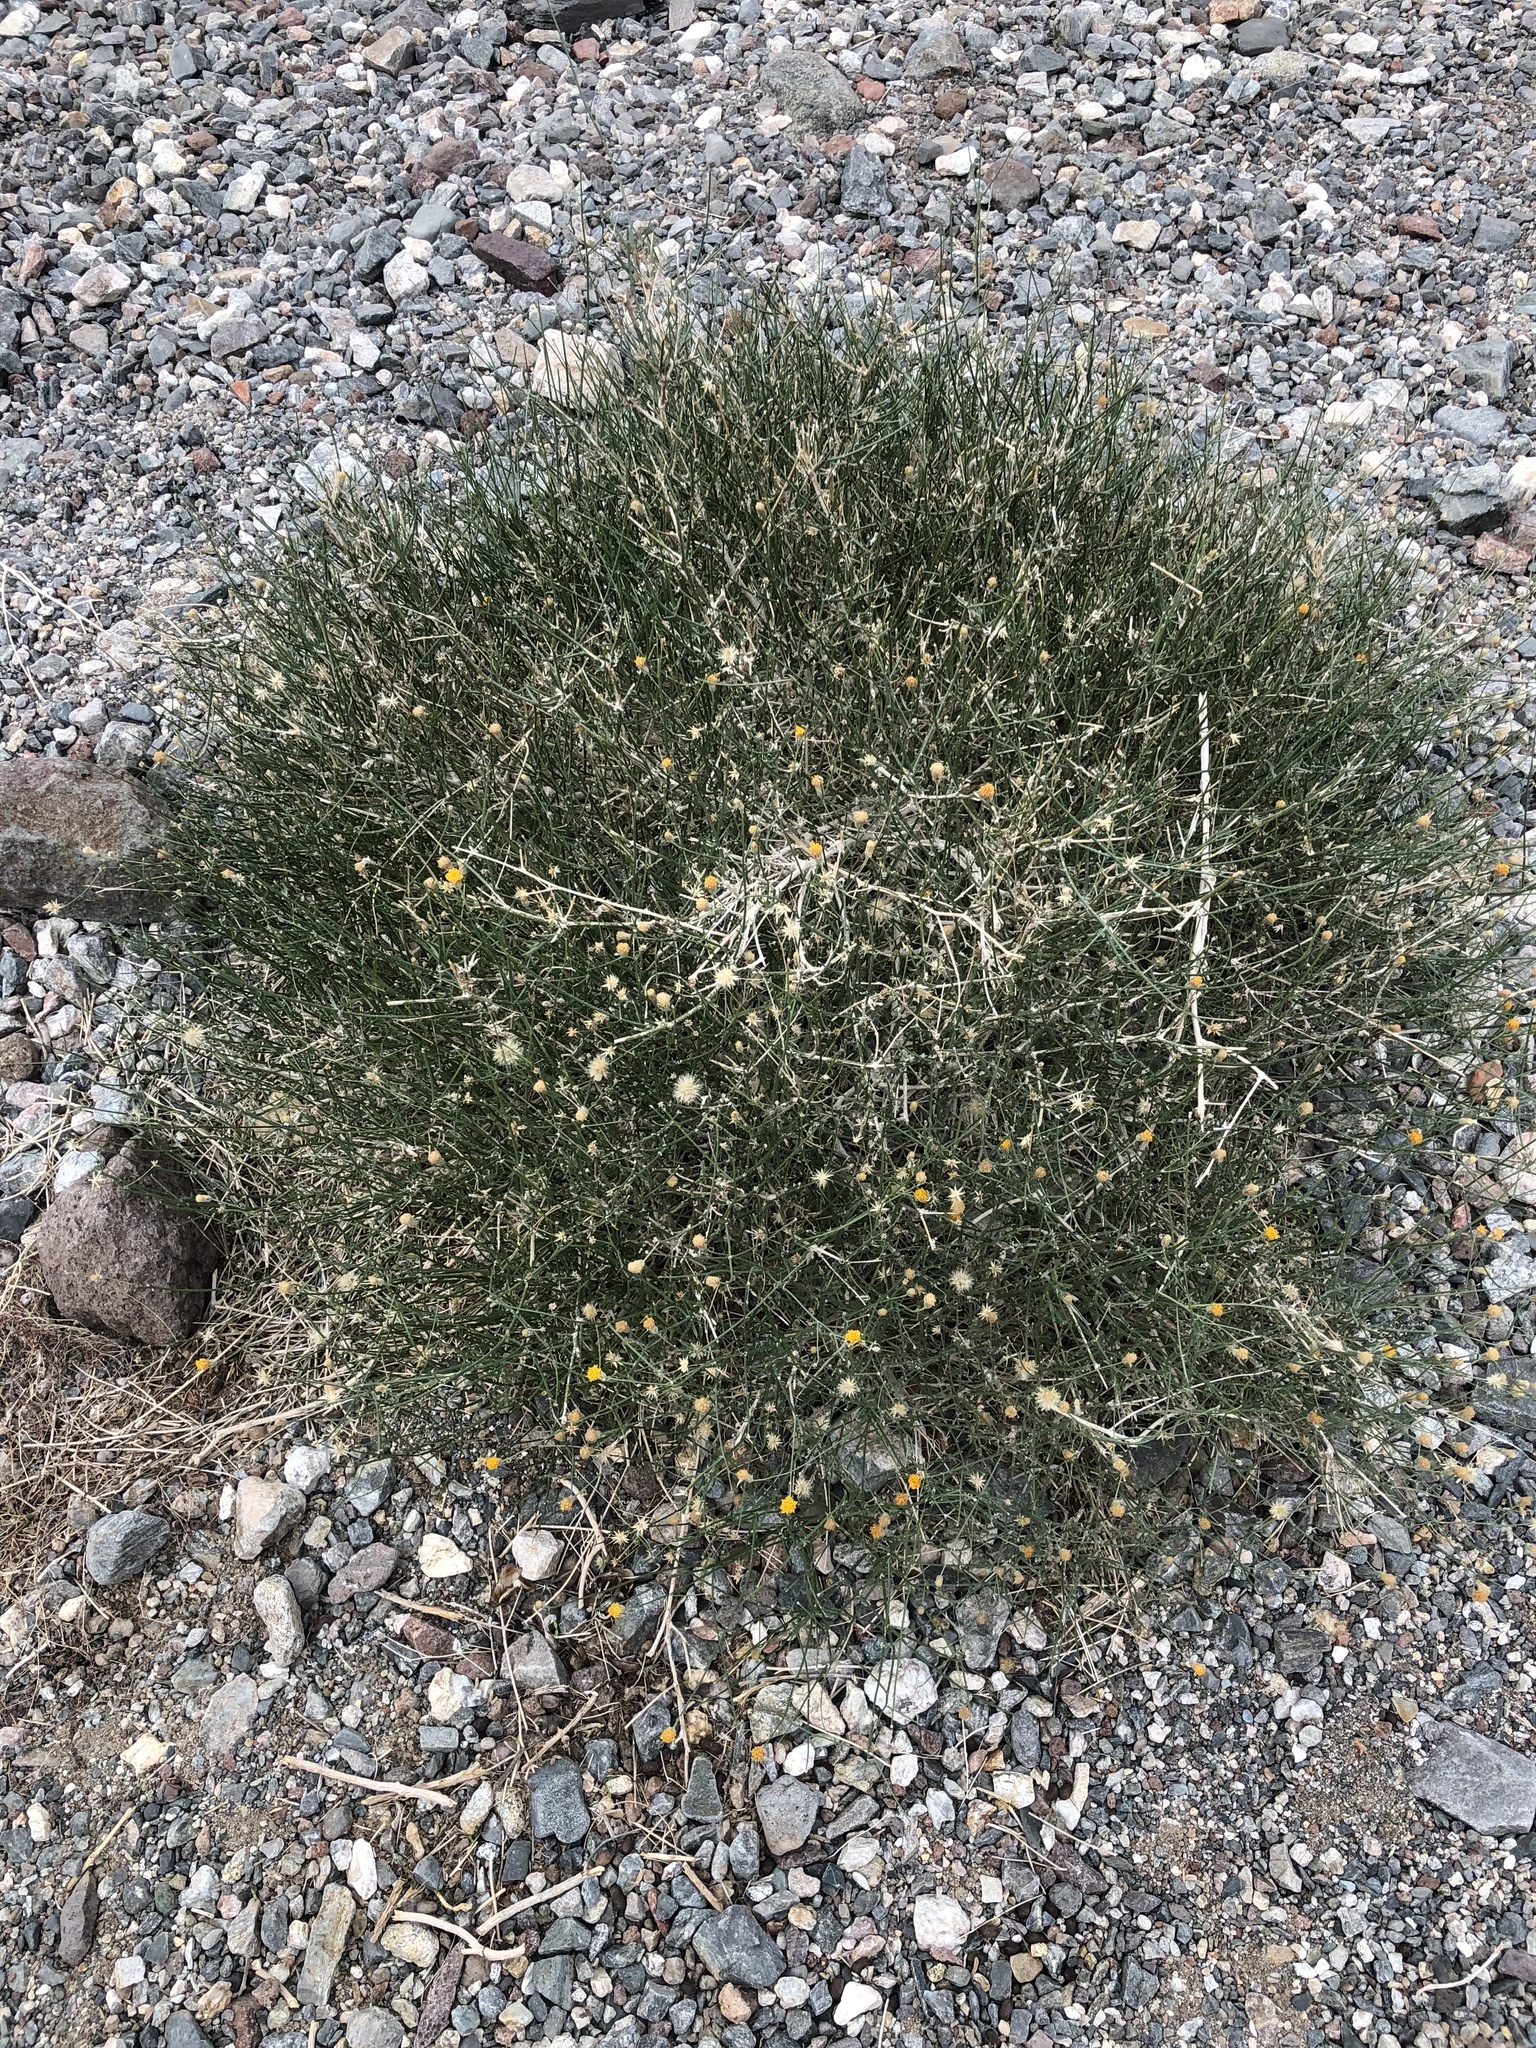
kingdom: Plantae
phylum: Tracheophyta
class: Magnoliopsida
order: Asterales
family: Asteraceae
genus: Bebbia
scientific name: Bebbia juncea
